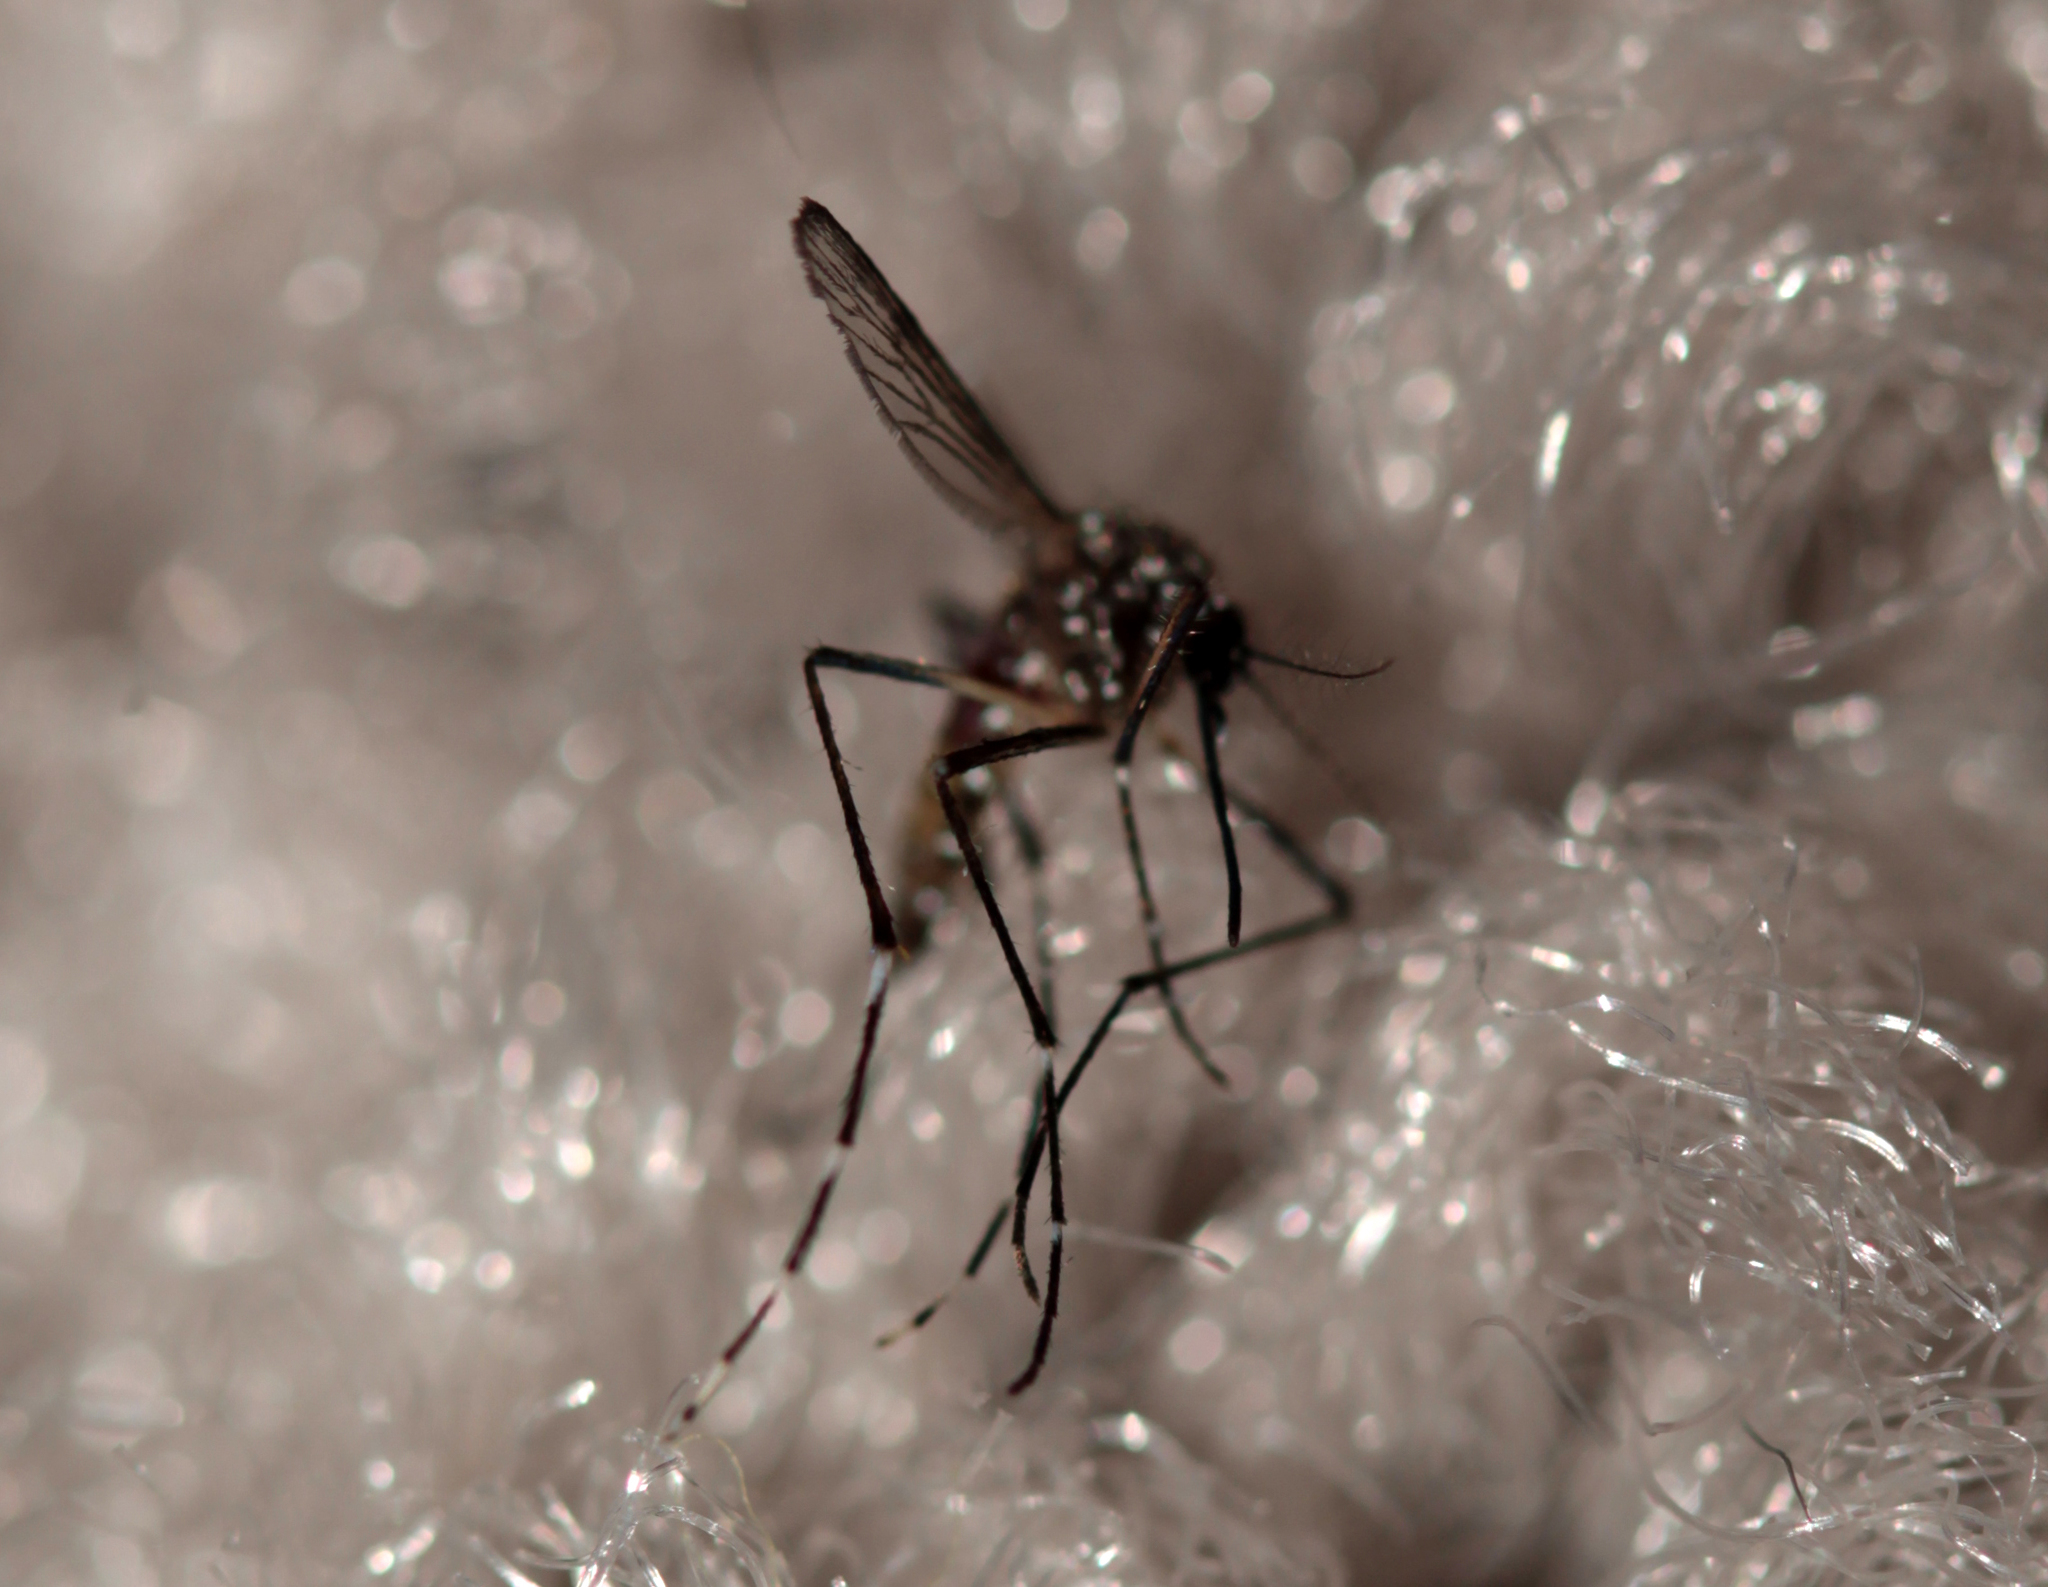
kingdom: Animalia
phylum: Arthropoda
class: Insecta
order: Diptera
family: Culicidae
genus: Aedes
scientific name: Aedes aegypti
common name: Yellow fever mosquito
